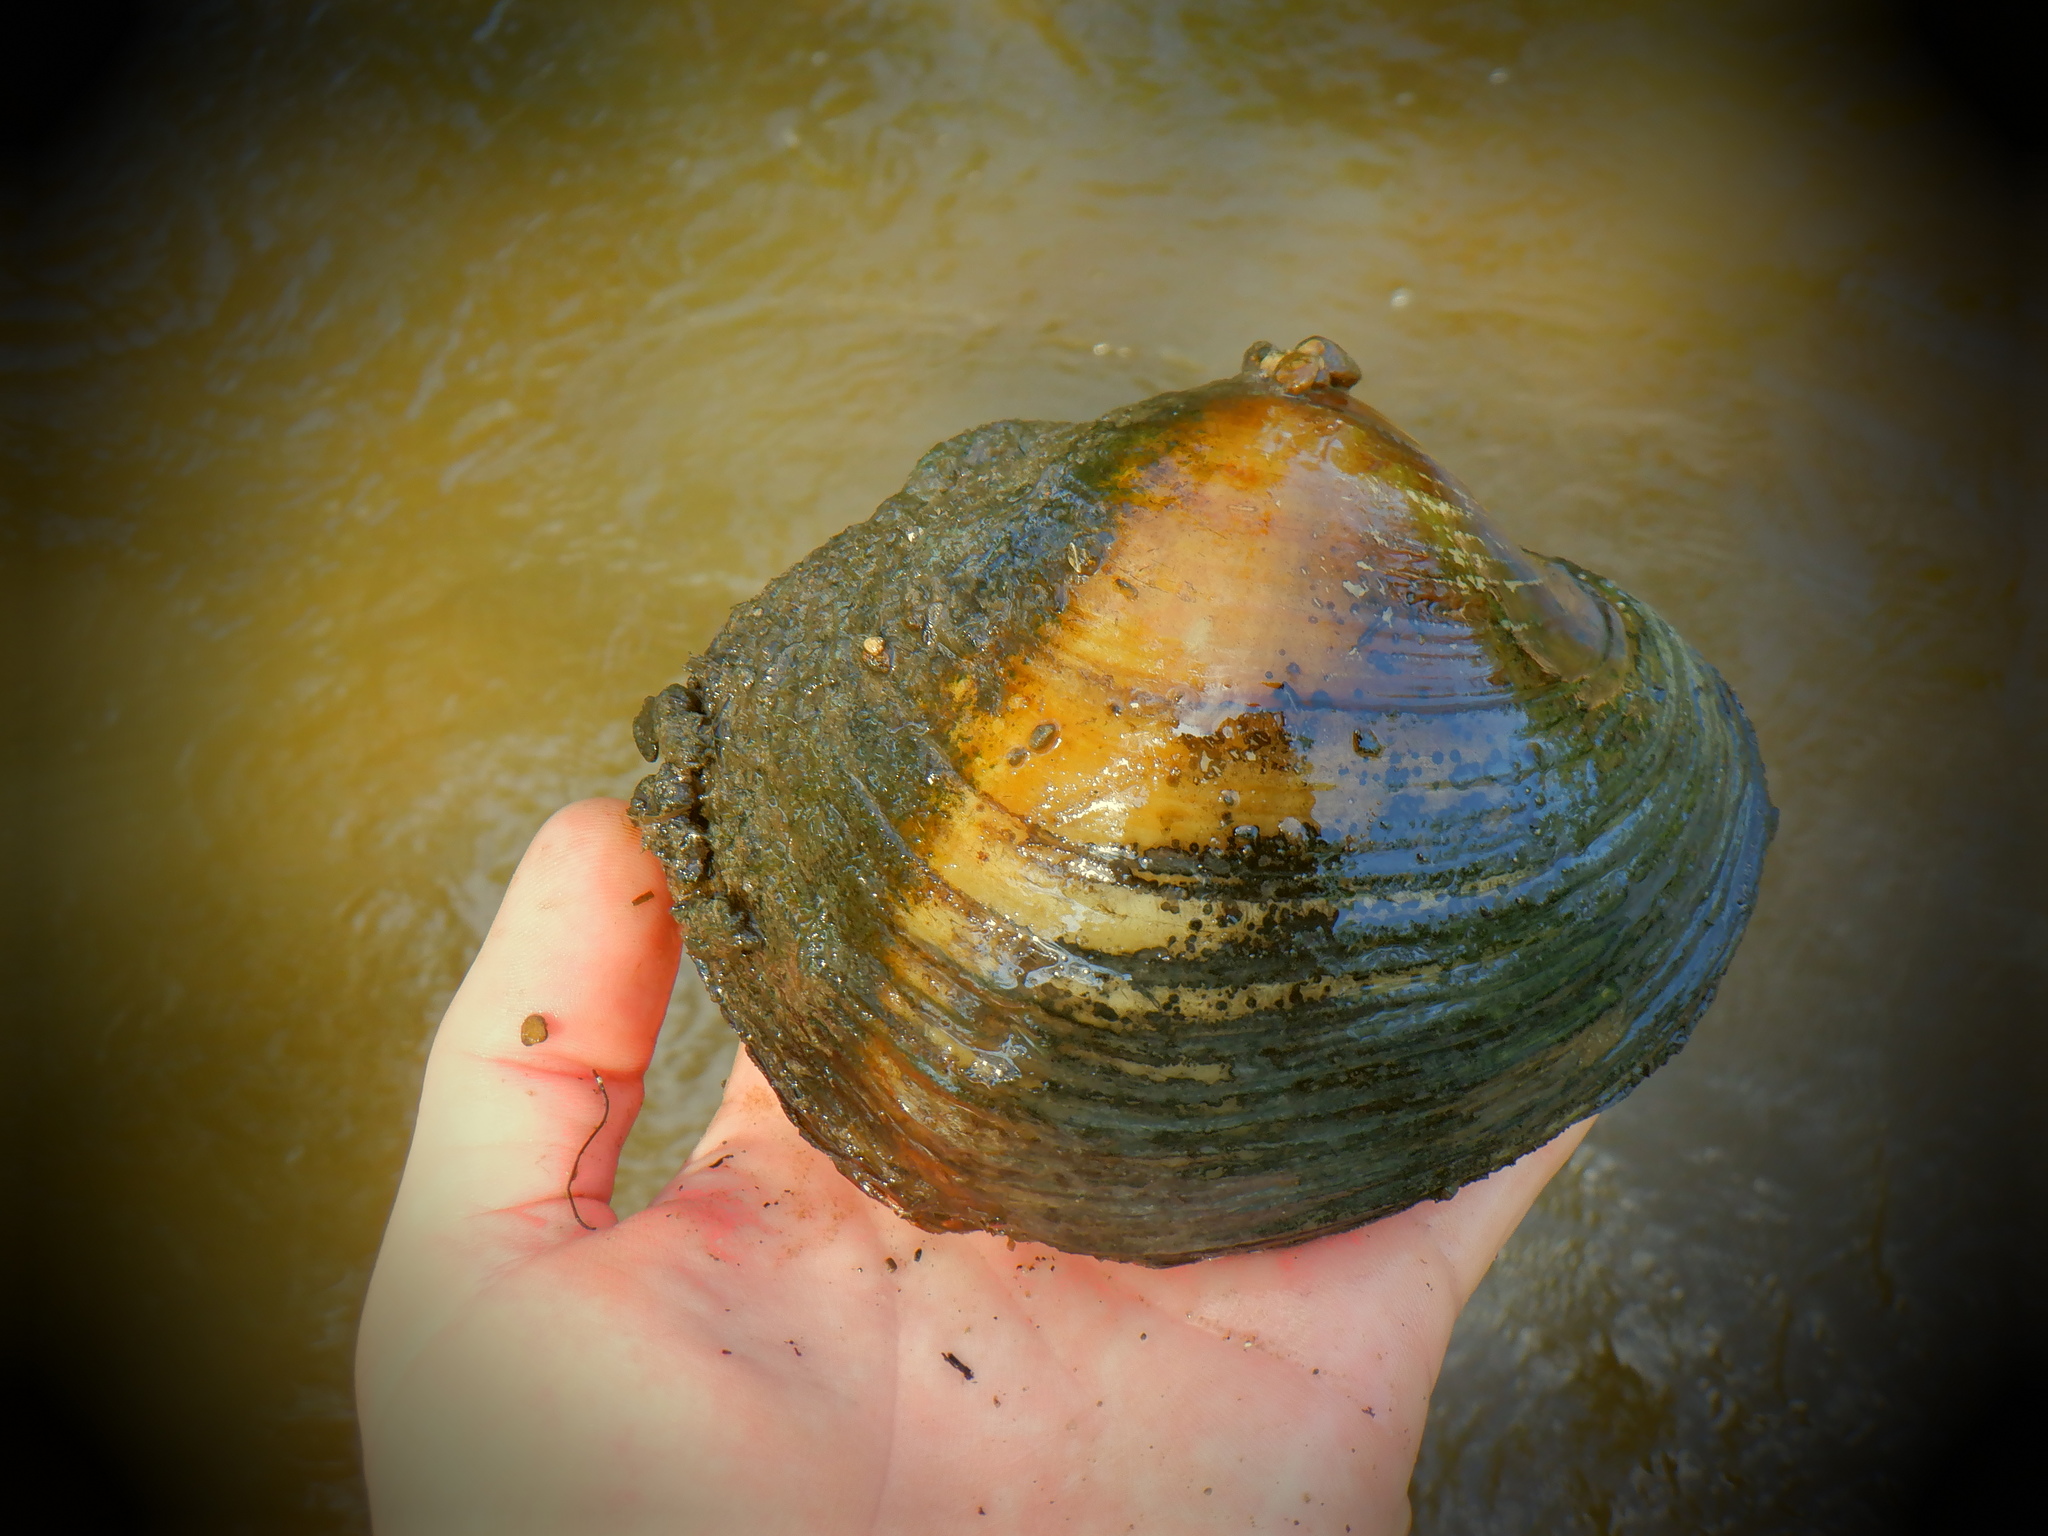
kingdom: Animalia
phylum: Mollusca
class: Bivalvia
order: Unionida
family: Unionidae
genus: Lampsilis
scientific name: Lampsilis cardium
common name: Plain pocketbook
